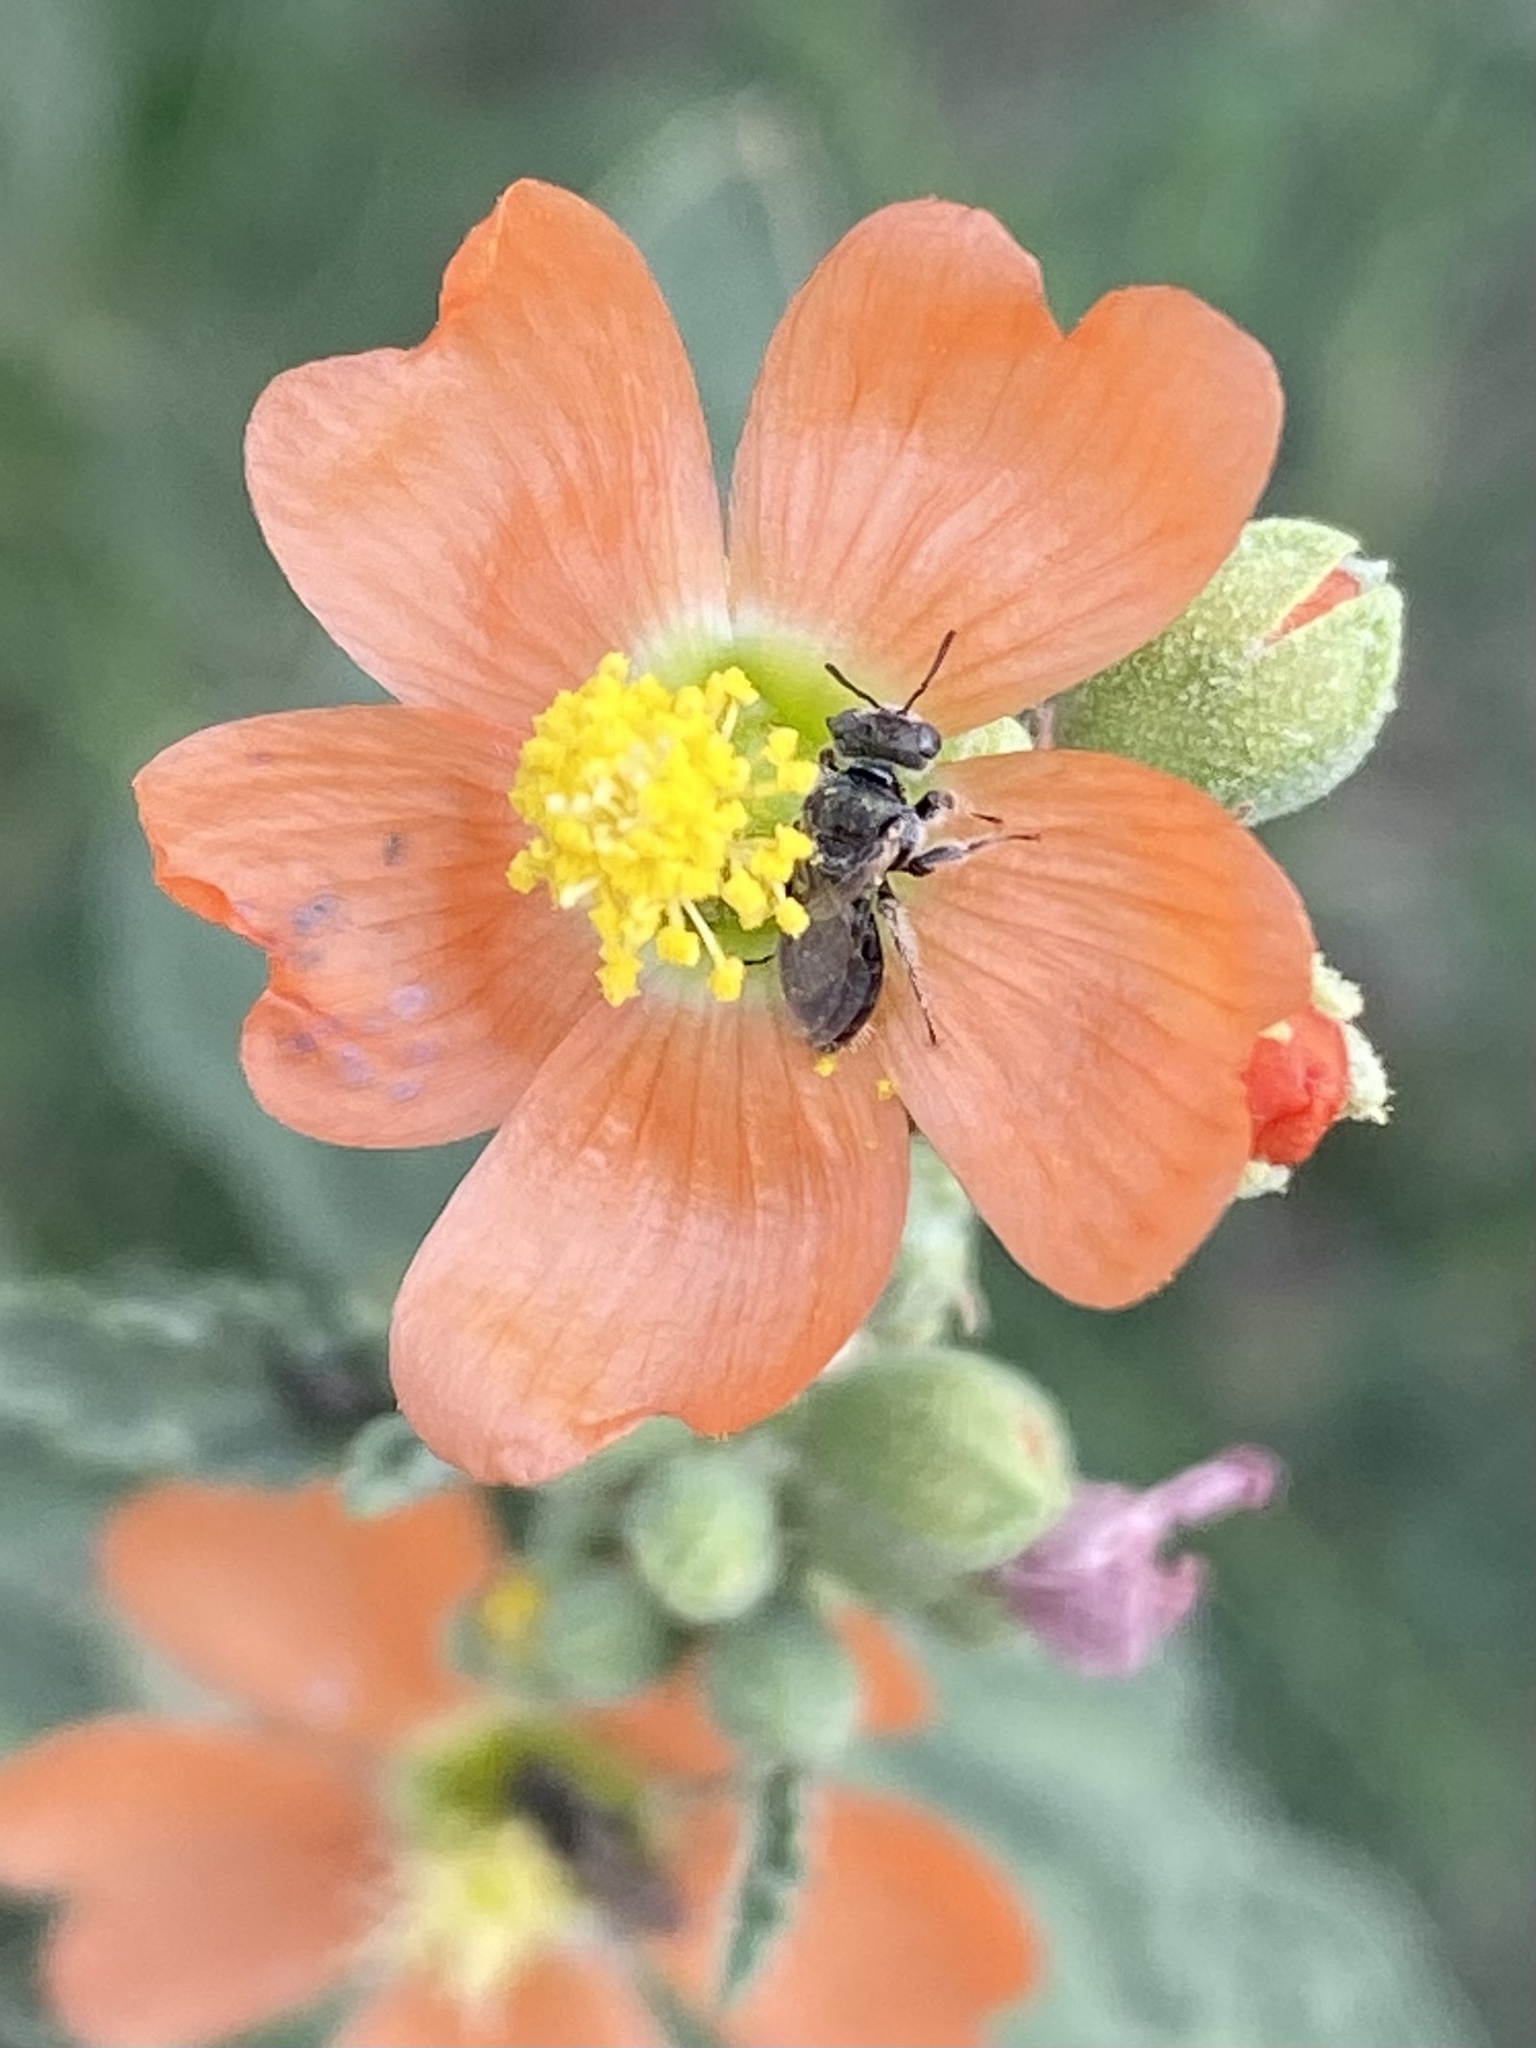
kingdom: Animalia
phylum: Arthropoda
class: Insecta
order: Hymenoptera
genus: Macroteropsis
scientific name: Macroteropsis
